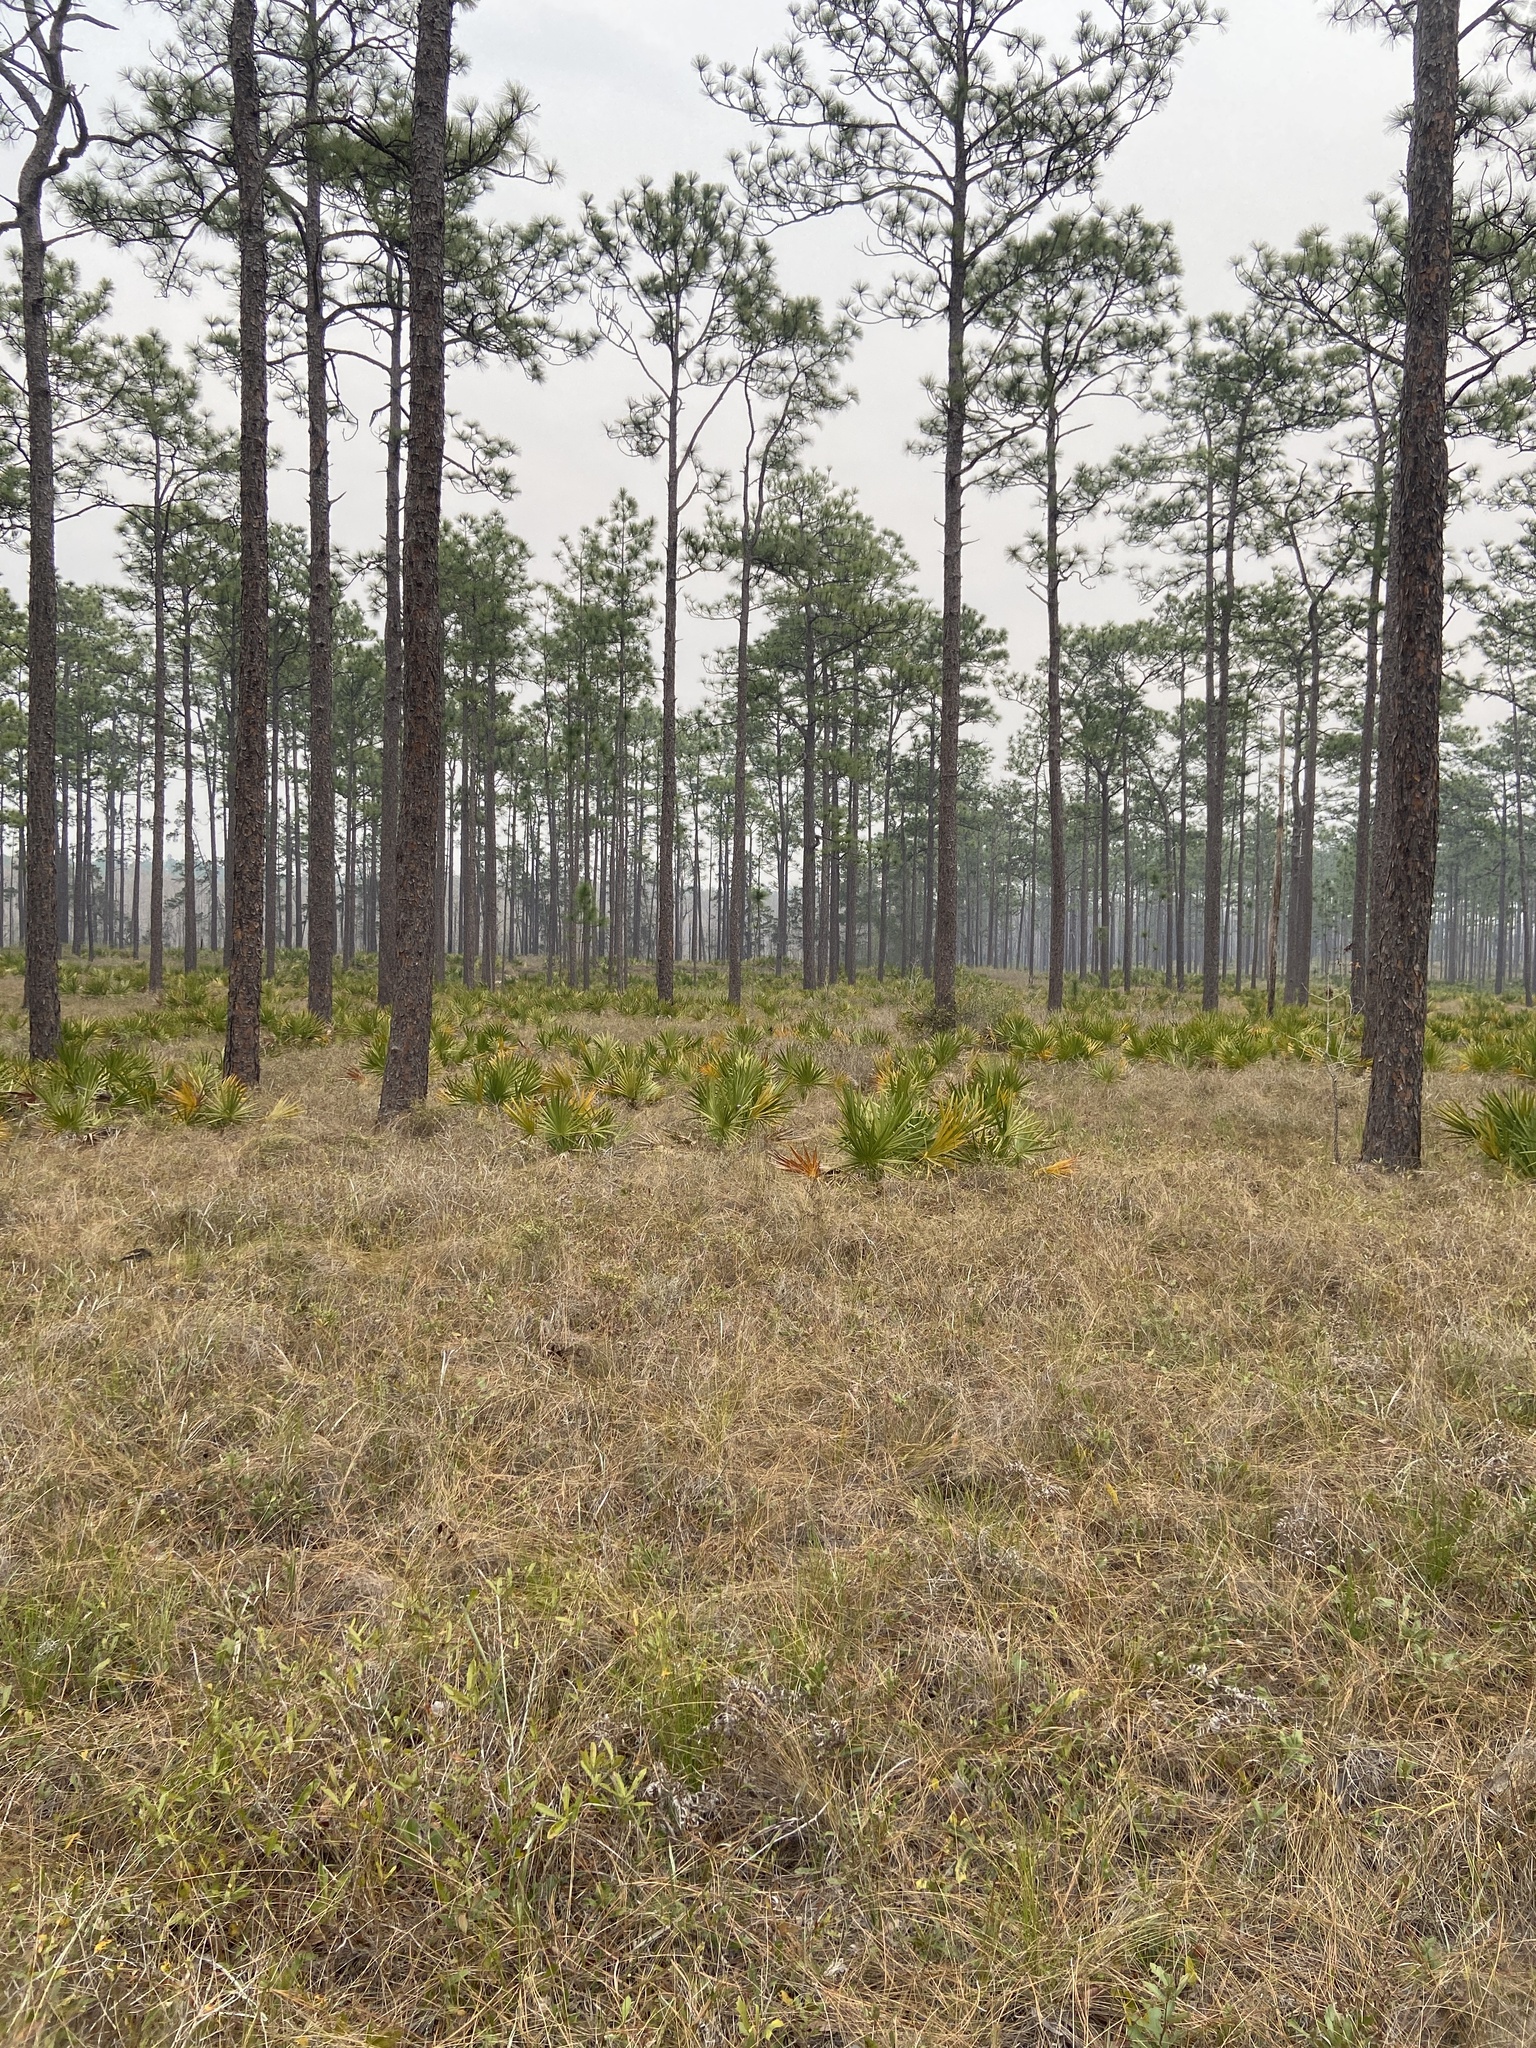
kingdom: Plantae
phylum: Tracheophyta
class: Pinopsida
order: Pinales
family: Pinaceae
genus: Pinus
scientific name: Pinus palustris
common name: Longleaf pine
